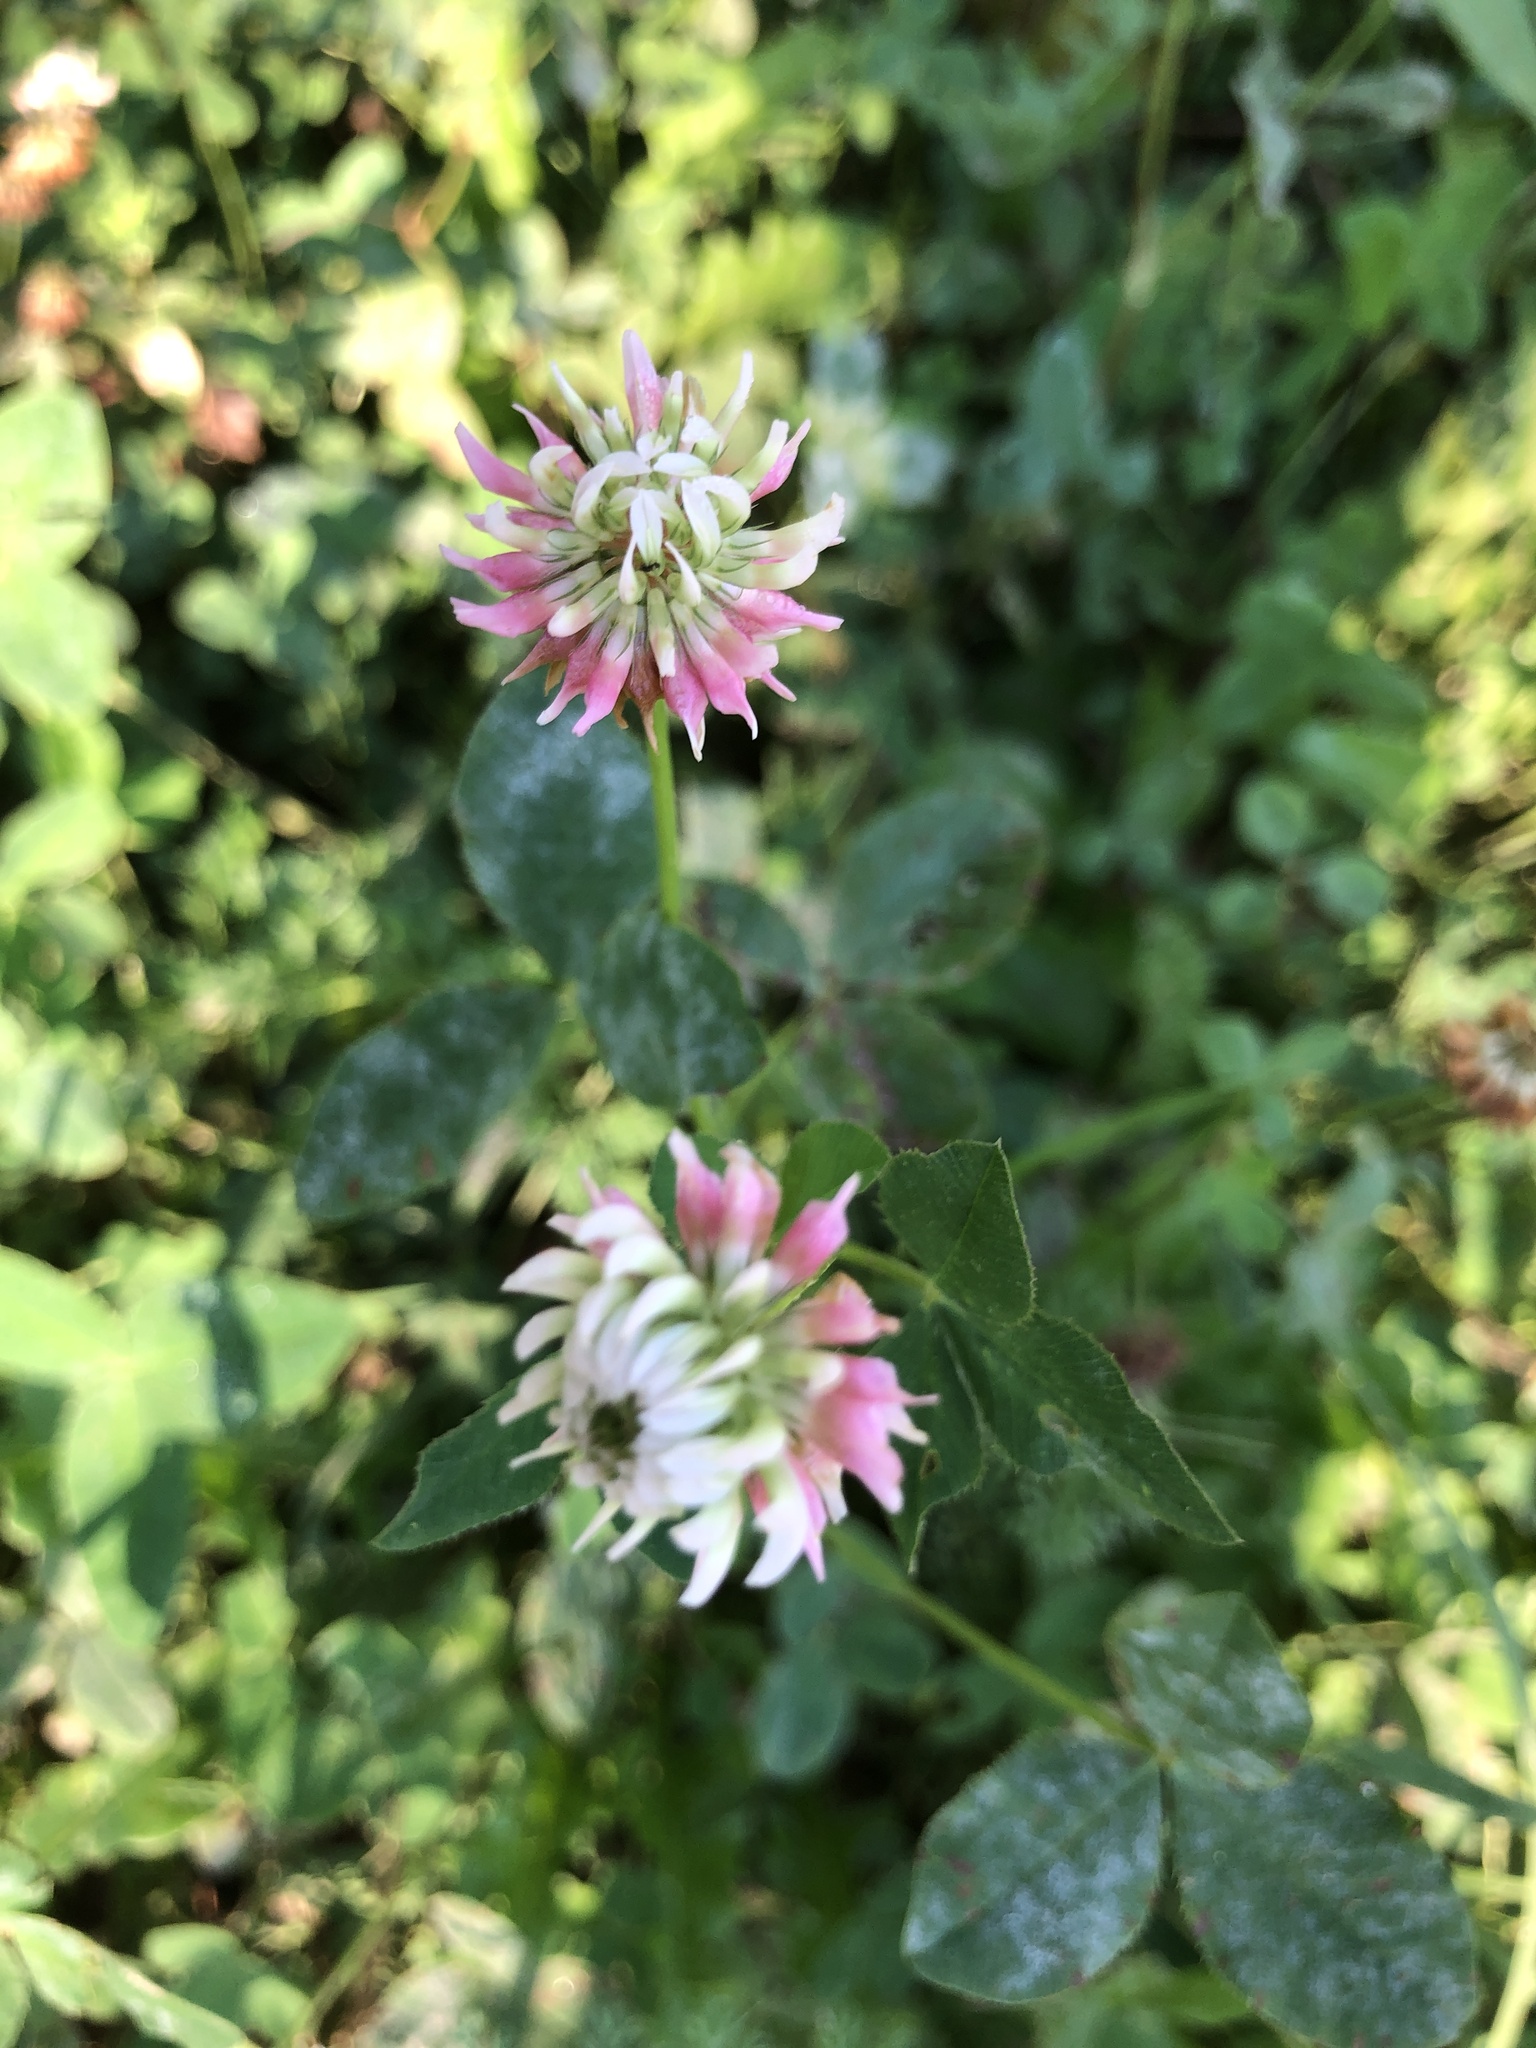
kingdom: Plantae
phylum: Tracheophyta
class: Magnoliopsida
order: Fabales
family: Fabaceae
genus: Trifolium
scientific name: Trifolium hybridum
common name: Alsike clover
